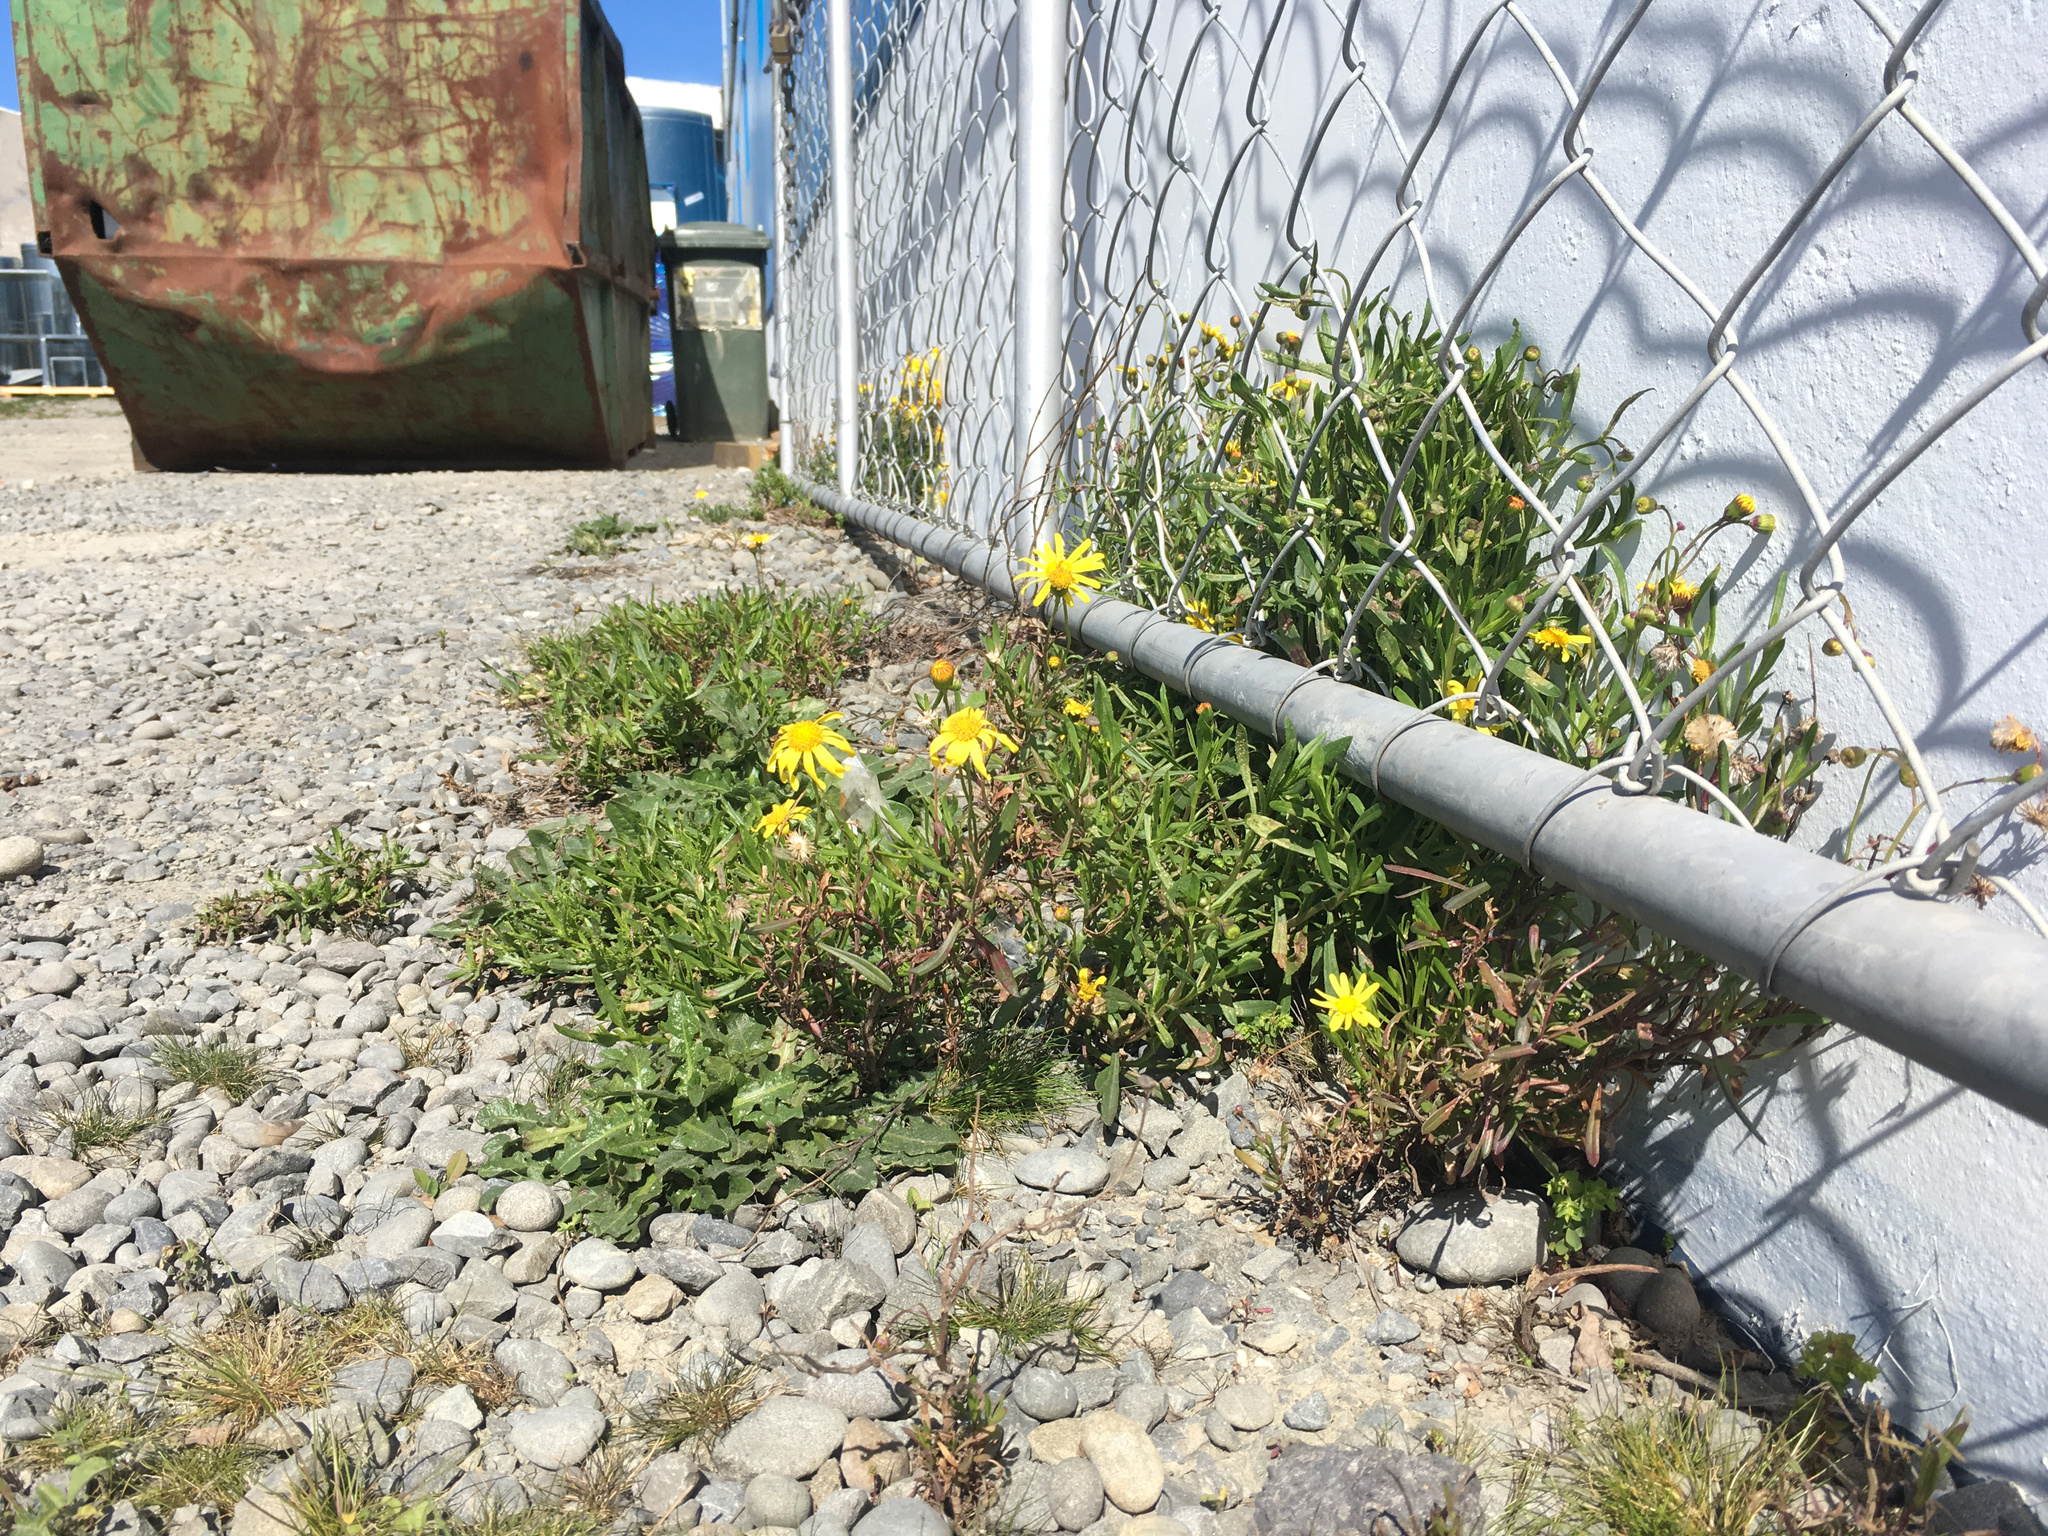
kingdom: Plantae
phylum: Tracheophyta
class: Magnoliopsida
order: Asterales
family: Asteraceae
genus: Senecio
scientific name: Senecio skirrhodon
